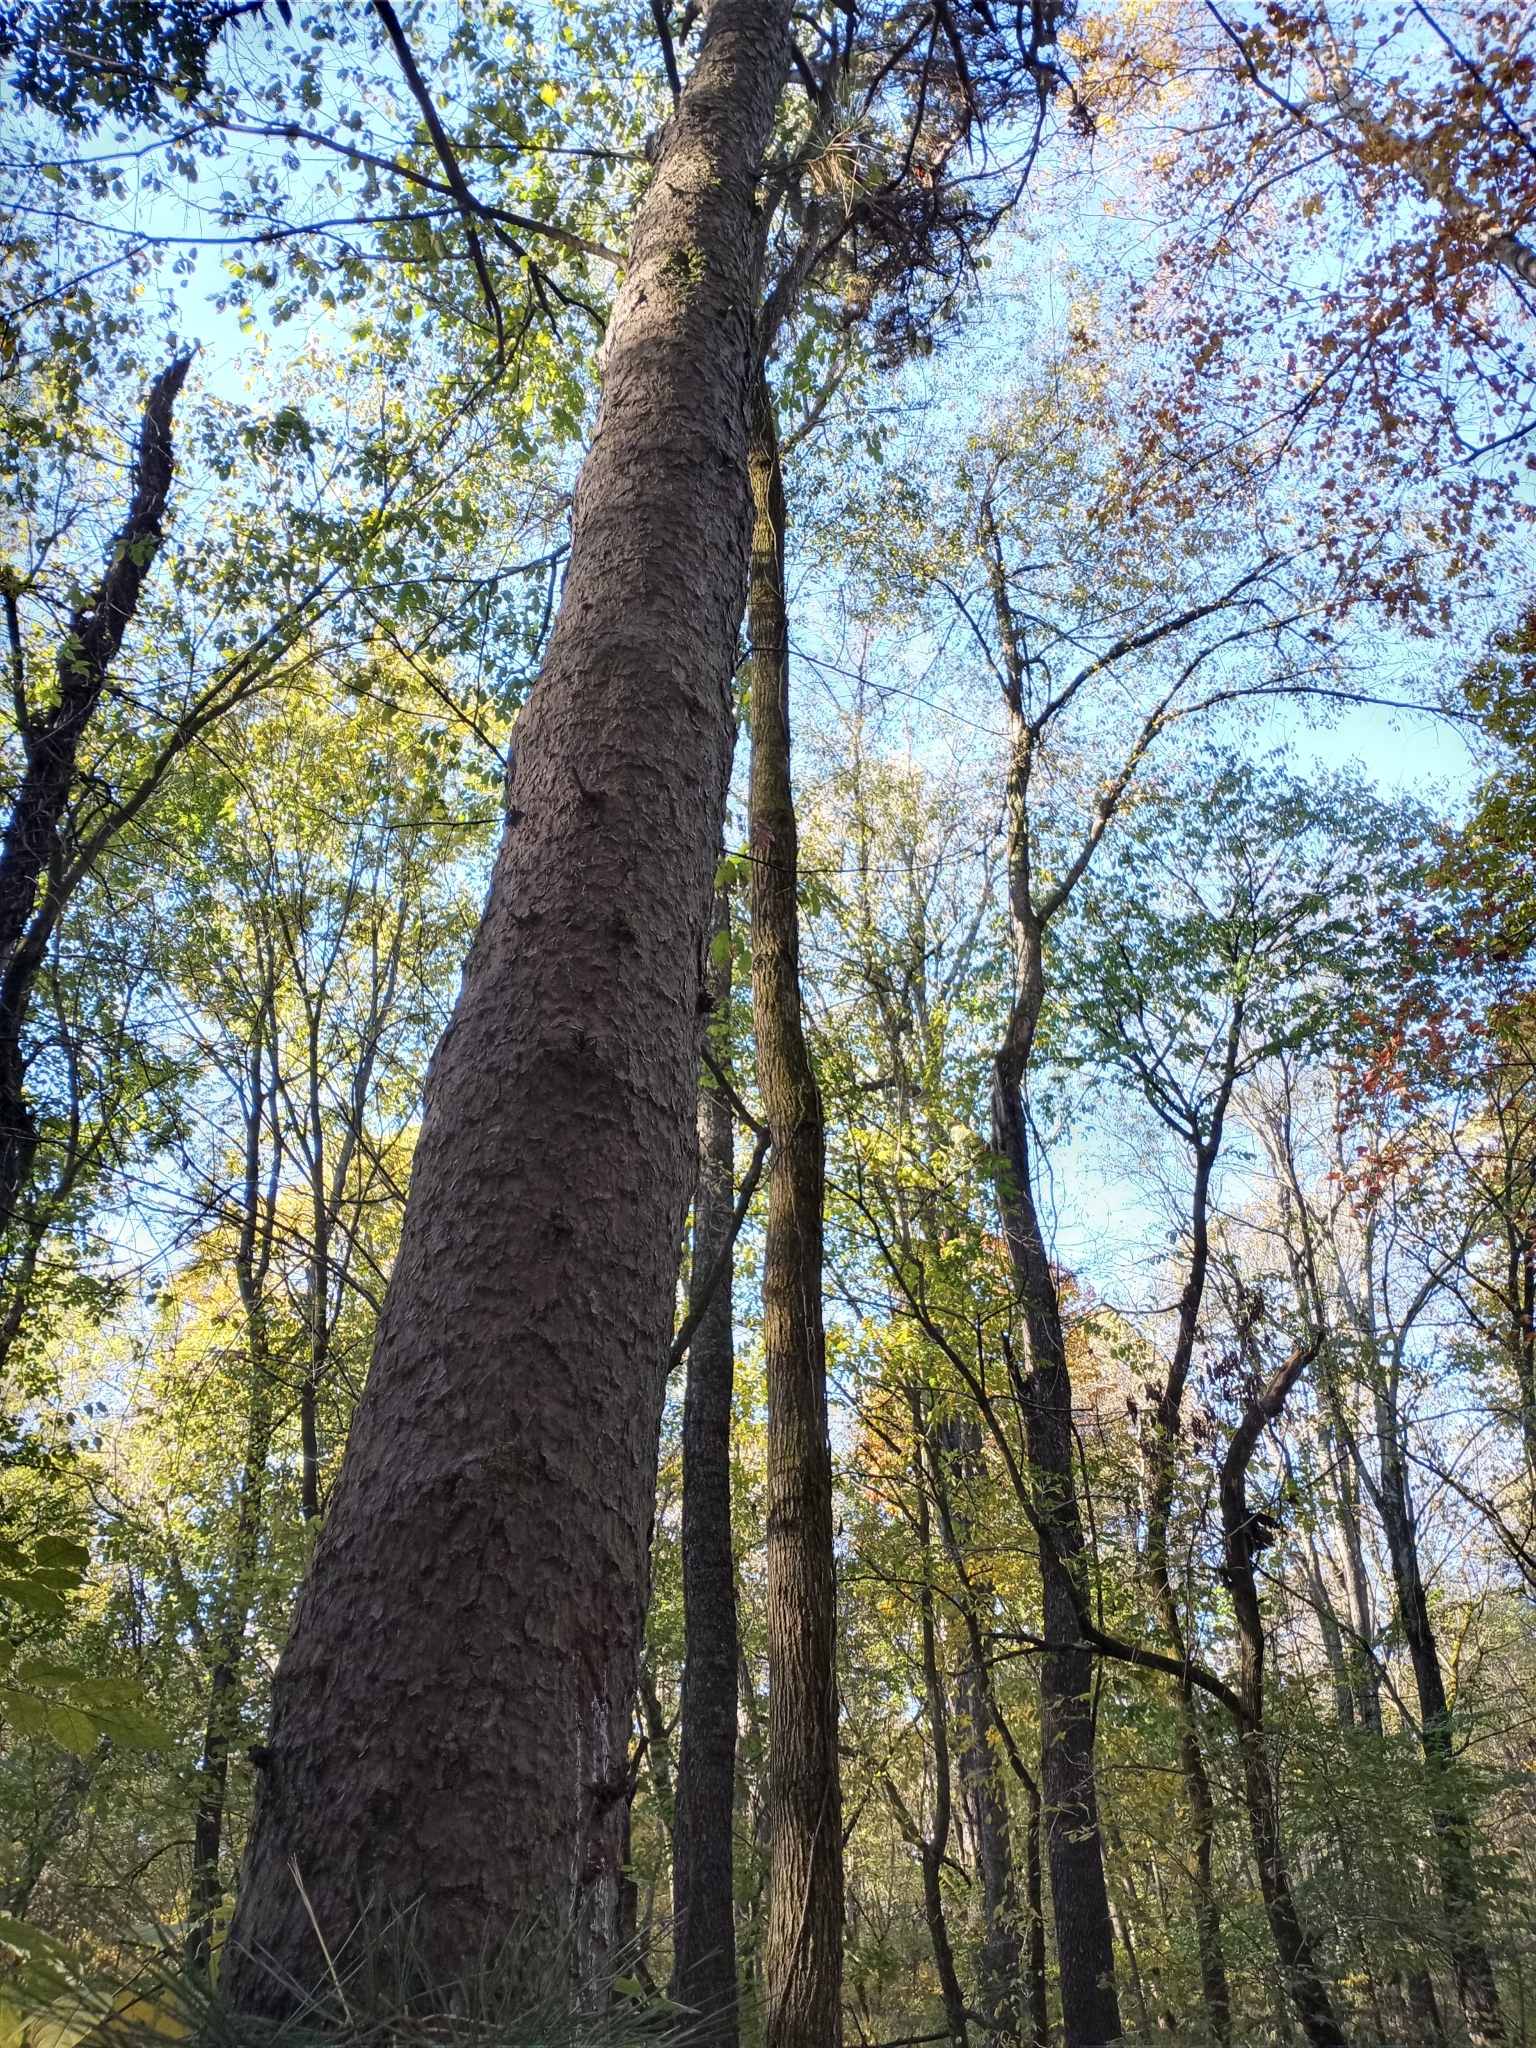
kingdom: Plantae
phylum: Tracheophyta
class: Pinopsida
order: Pinales
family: Pinaceae
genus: Pinus
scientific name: Pinus rigida
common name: Pitch pine
